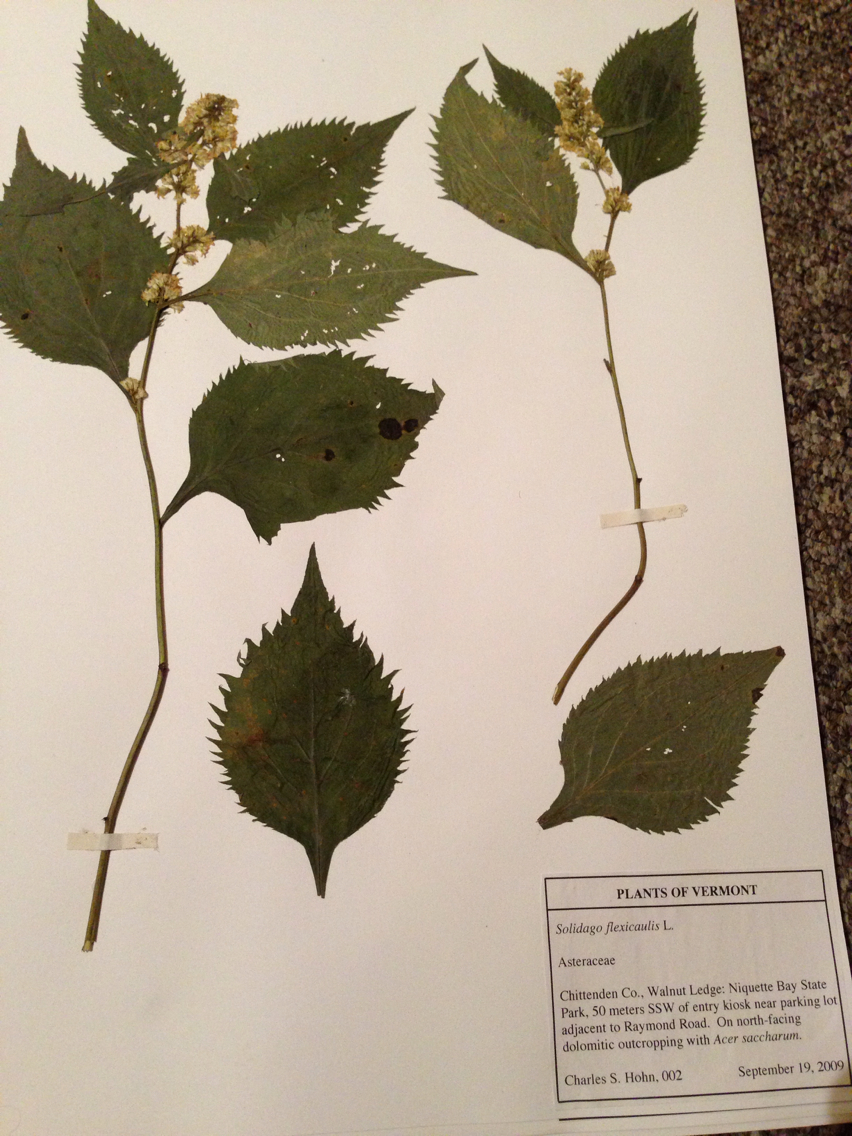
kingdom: Plantae
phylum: Tracheophyta
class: Magnoliopsida
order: Asterales
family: Asteraceae
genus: Solidago
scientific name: Solidago flexicaulis
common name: Zig-zag goldenrod
